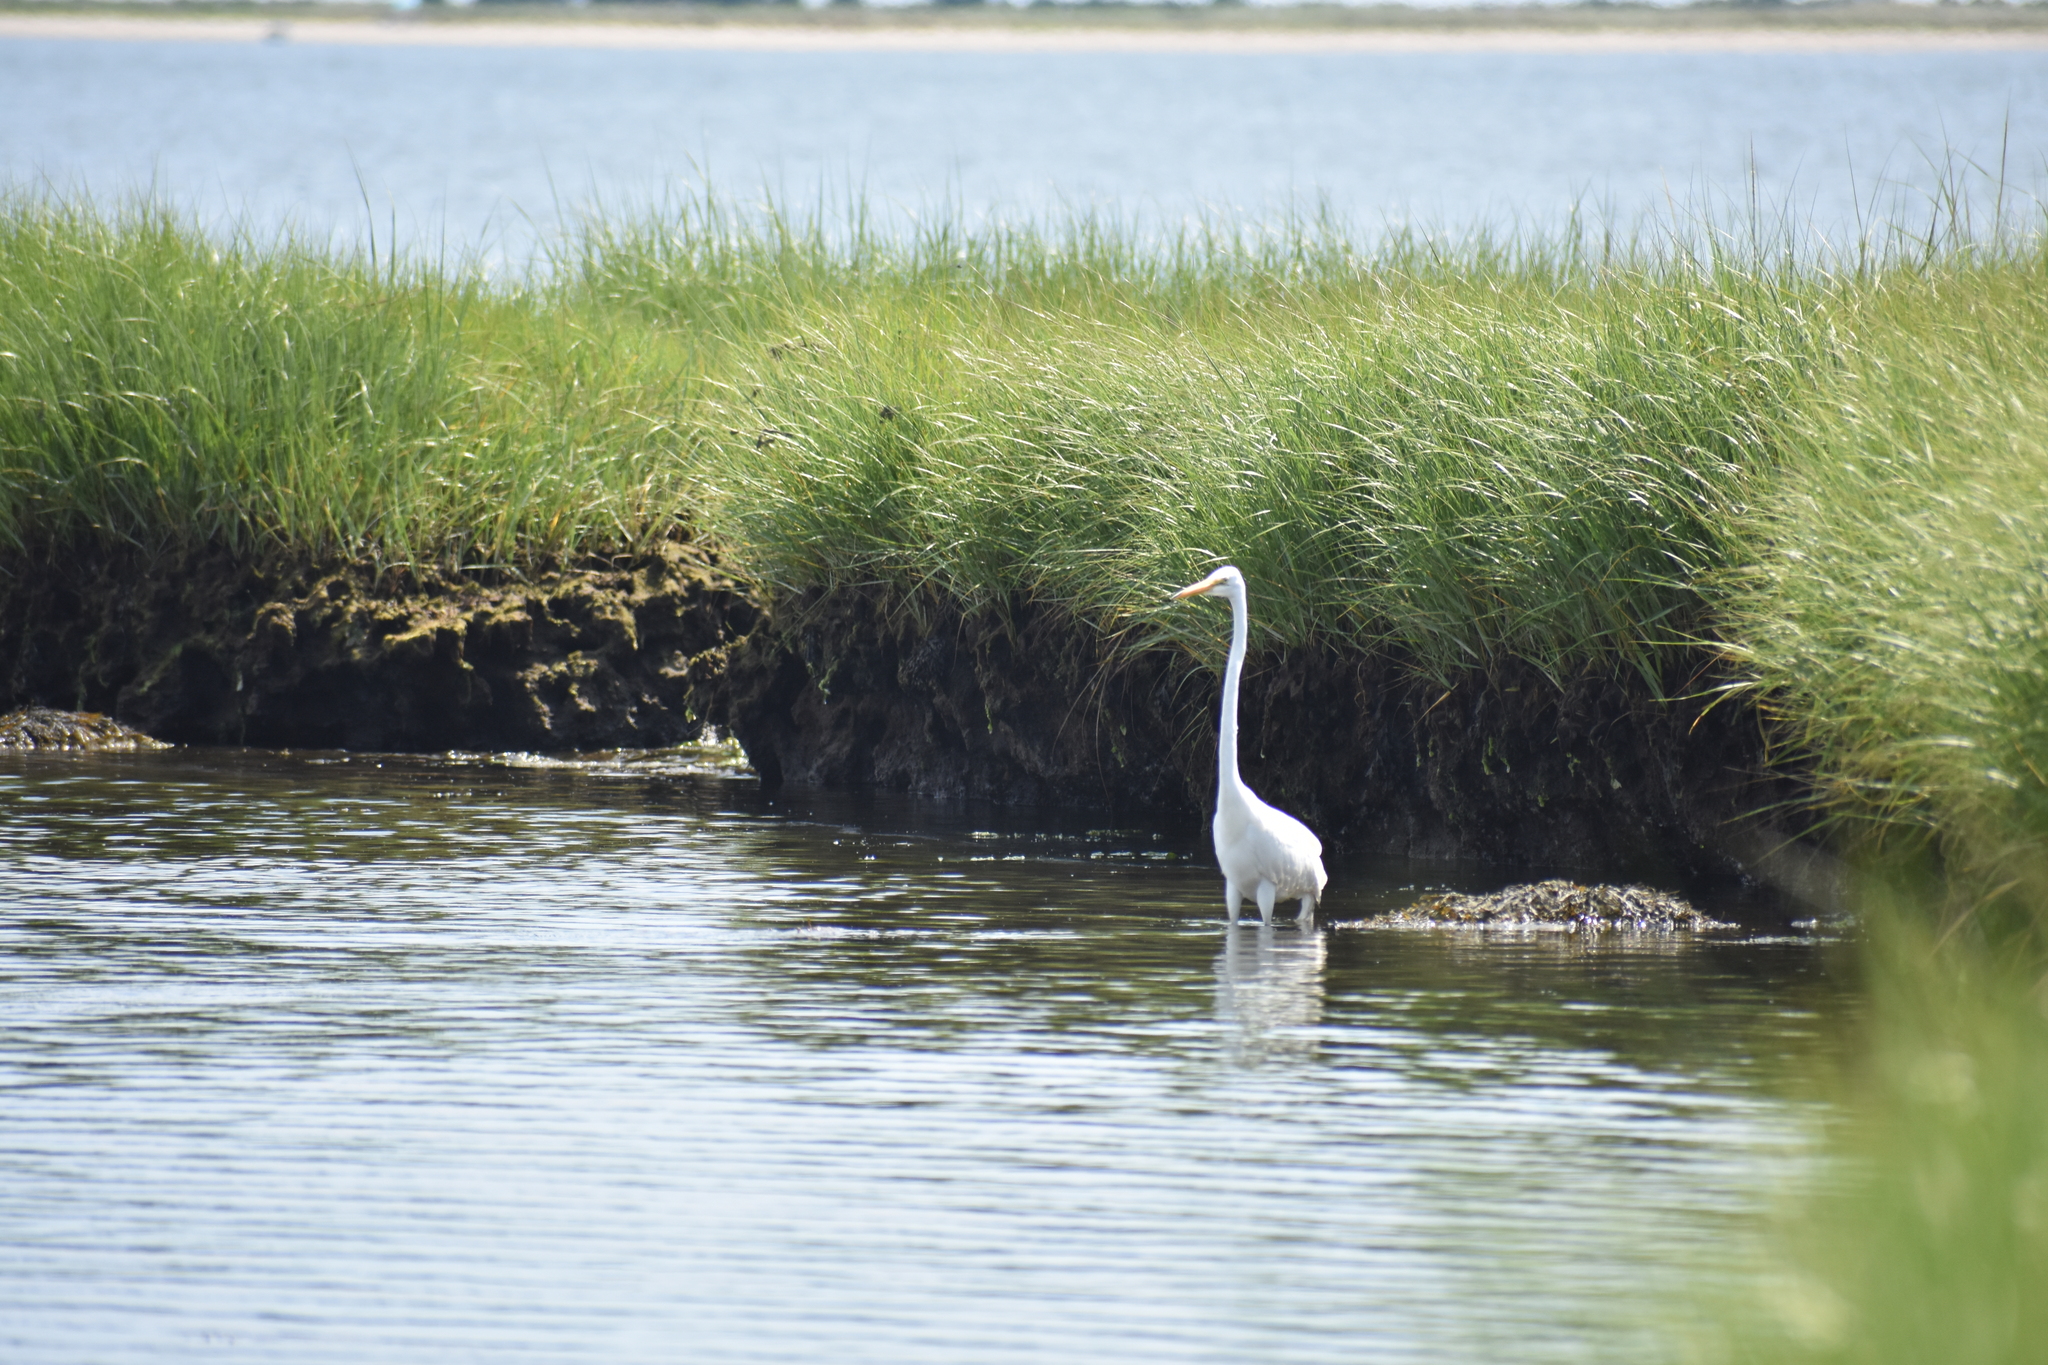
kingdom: Animalia
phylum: Chordata
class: Aves
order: Pelecaniformes
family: Ardeidae
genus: Ardea
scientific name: Ardea alba
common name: Great egret
